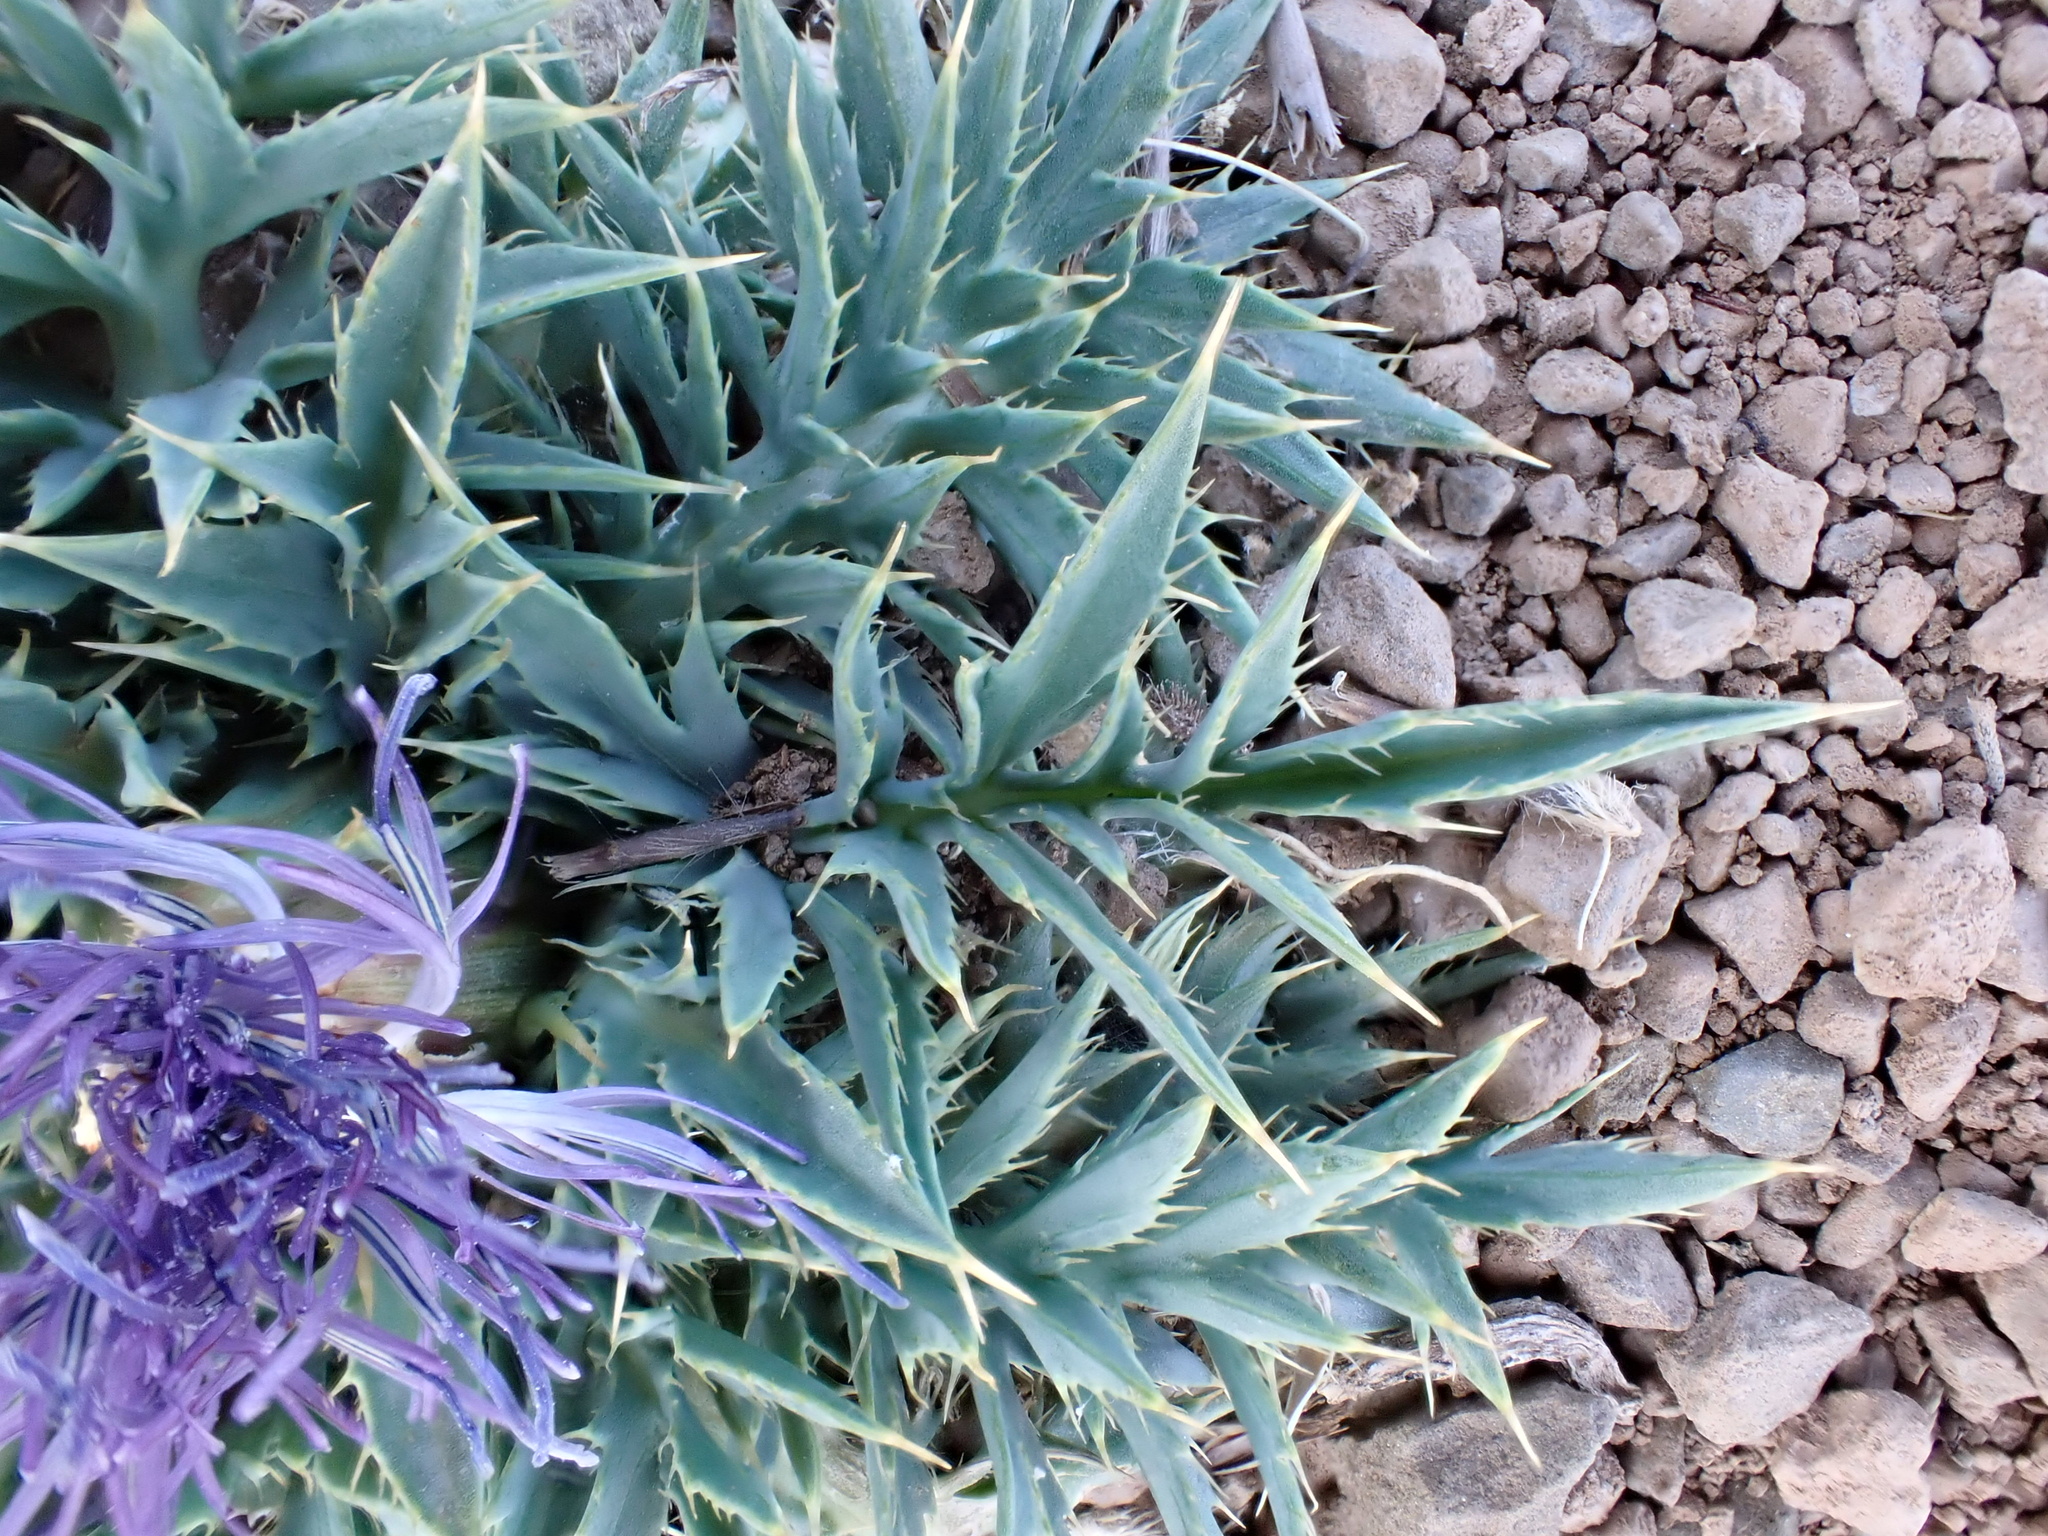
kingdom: Plantae
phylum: Tracheophyta
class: Magnoliopsida
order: Asterales
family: Asteraceae
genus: Carduncellus
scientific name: Carduncellus
